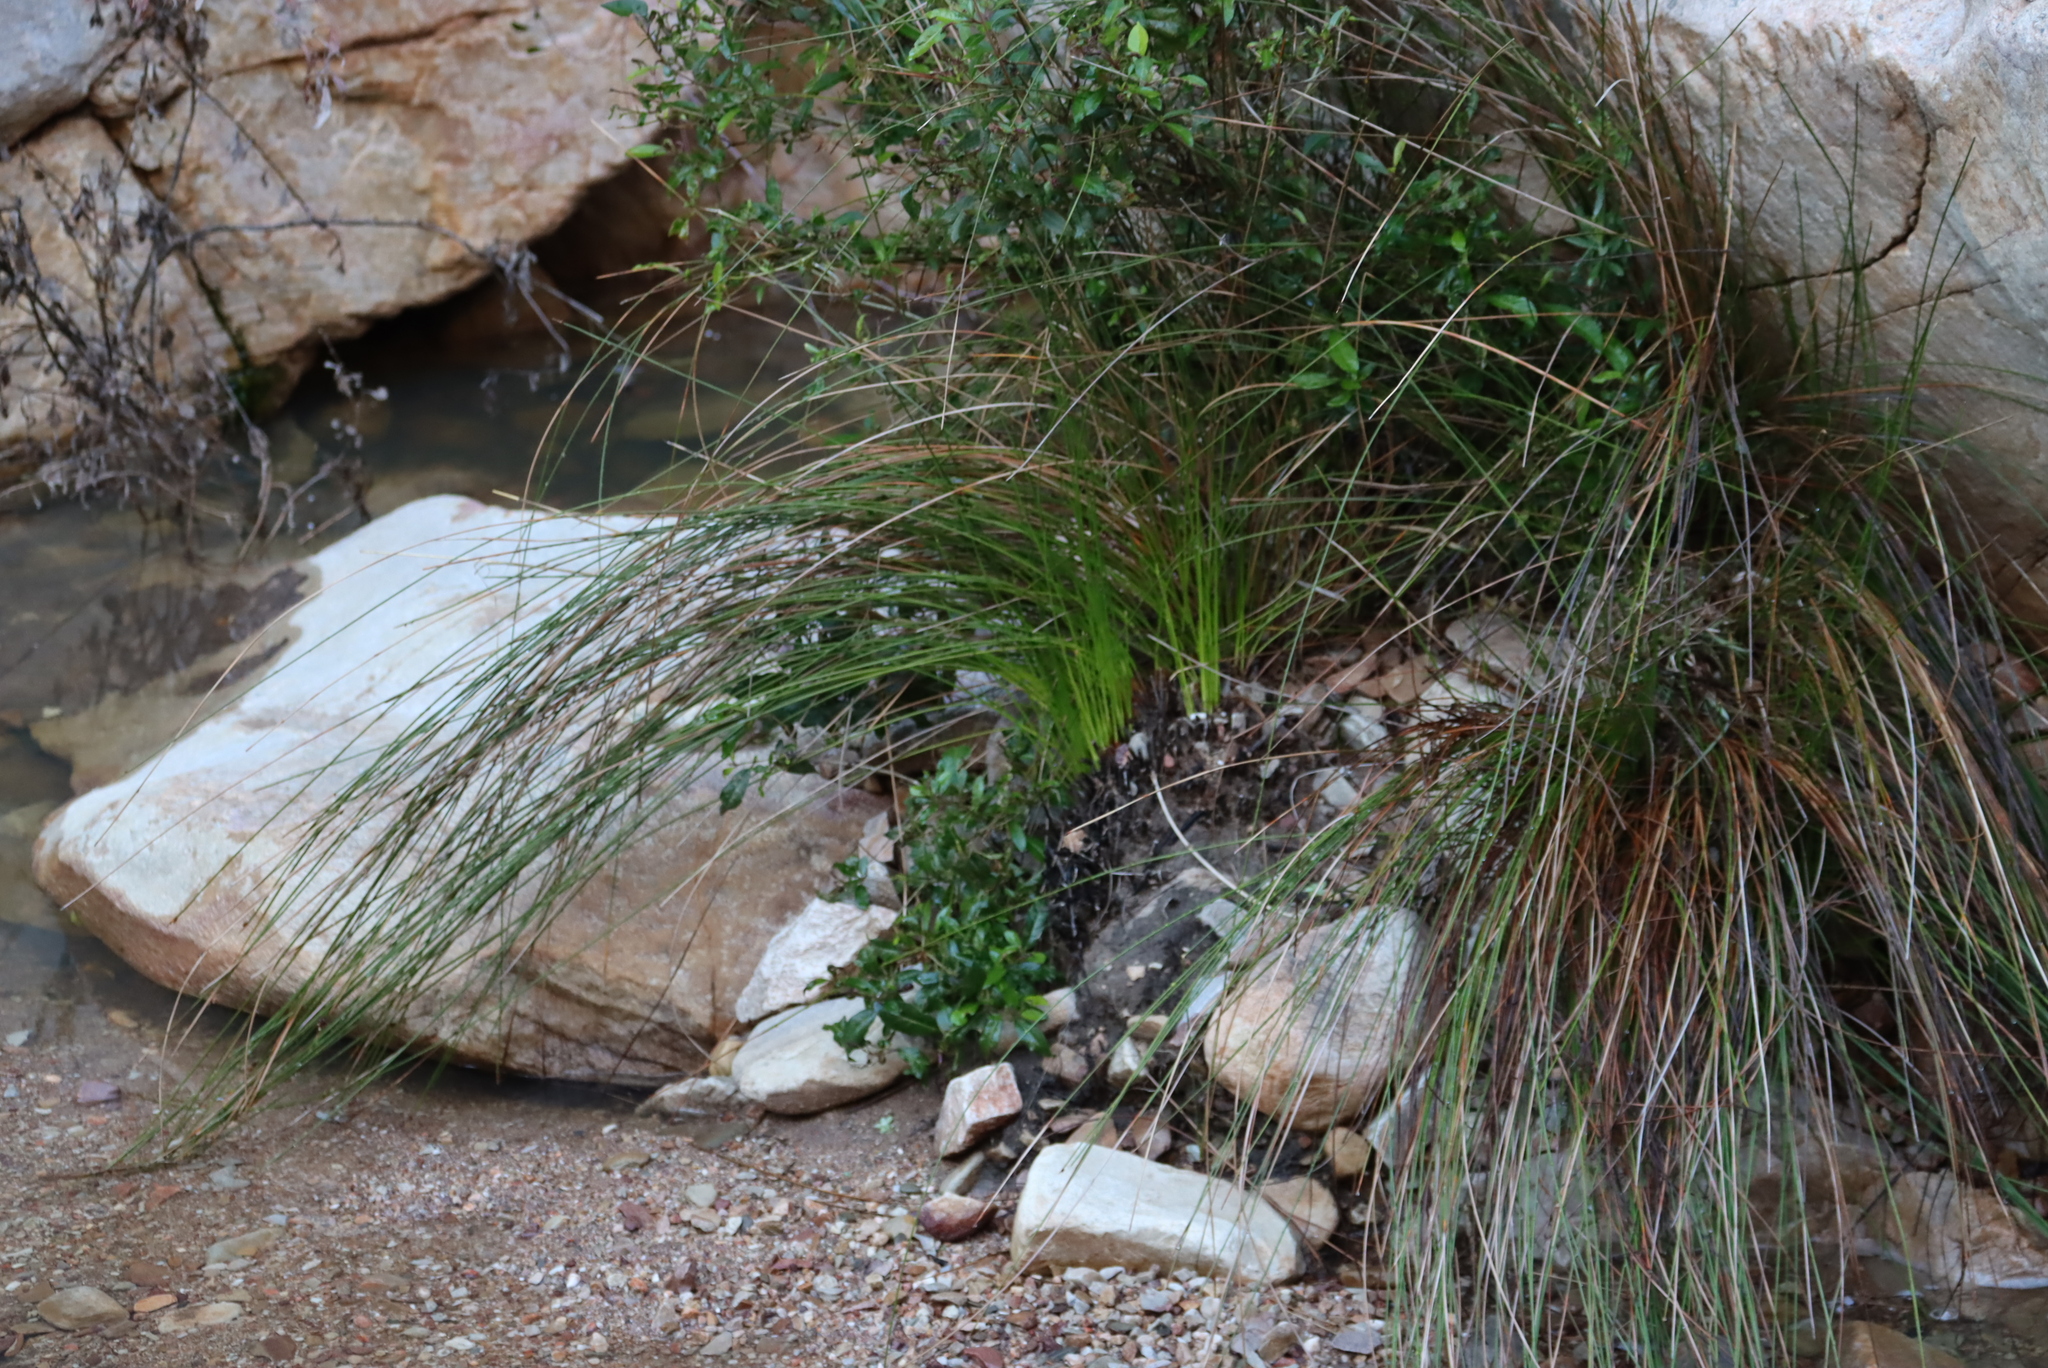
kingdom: Plantae
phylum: Tracheophyta
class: Liliopsida
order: Poales
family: Cyperaceae
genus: Ficinia
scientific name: Ficinia brevifolia
